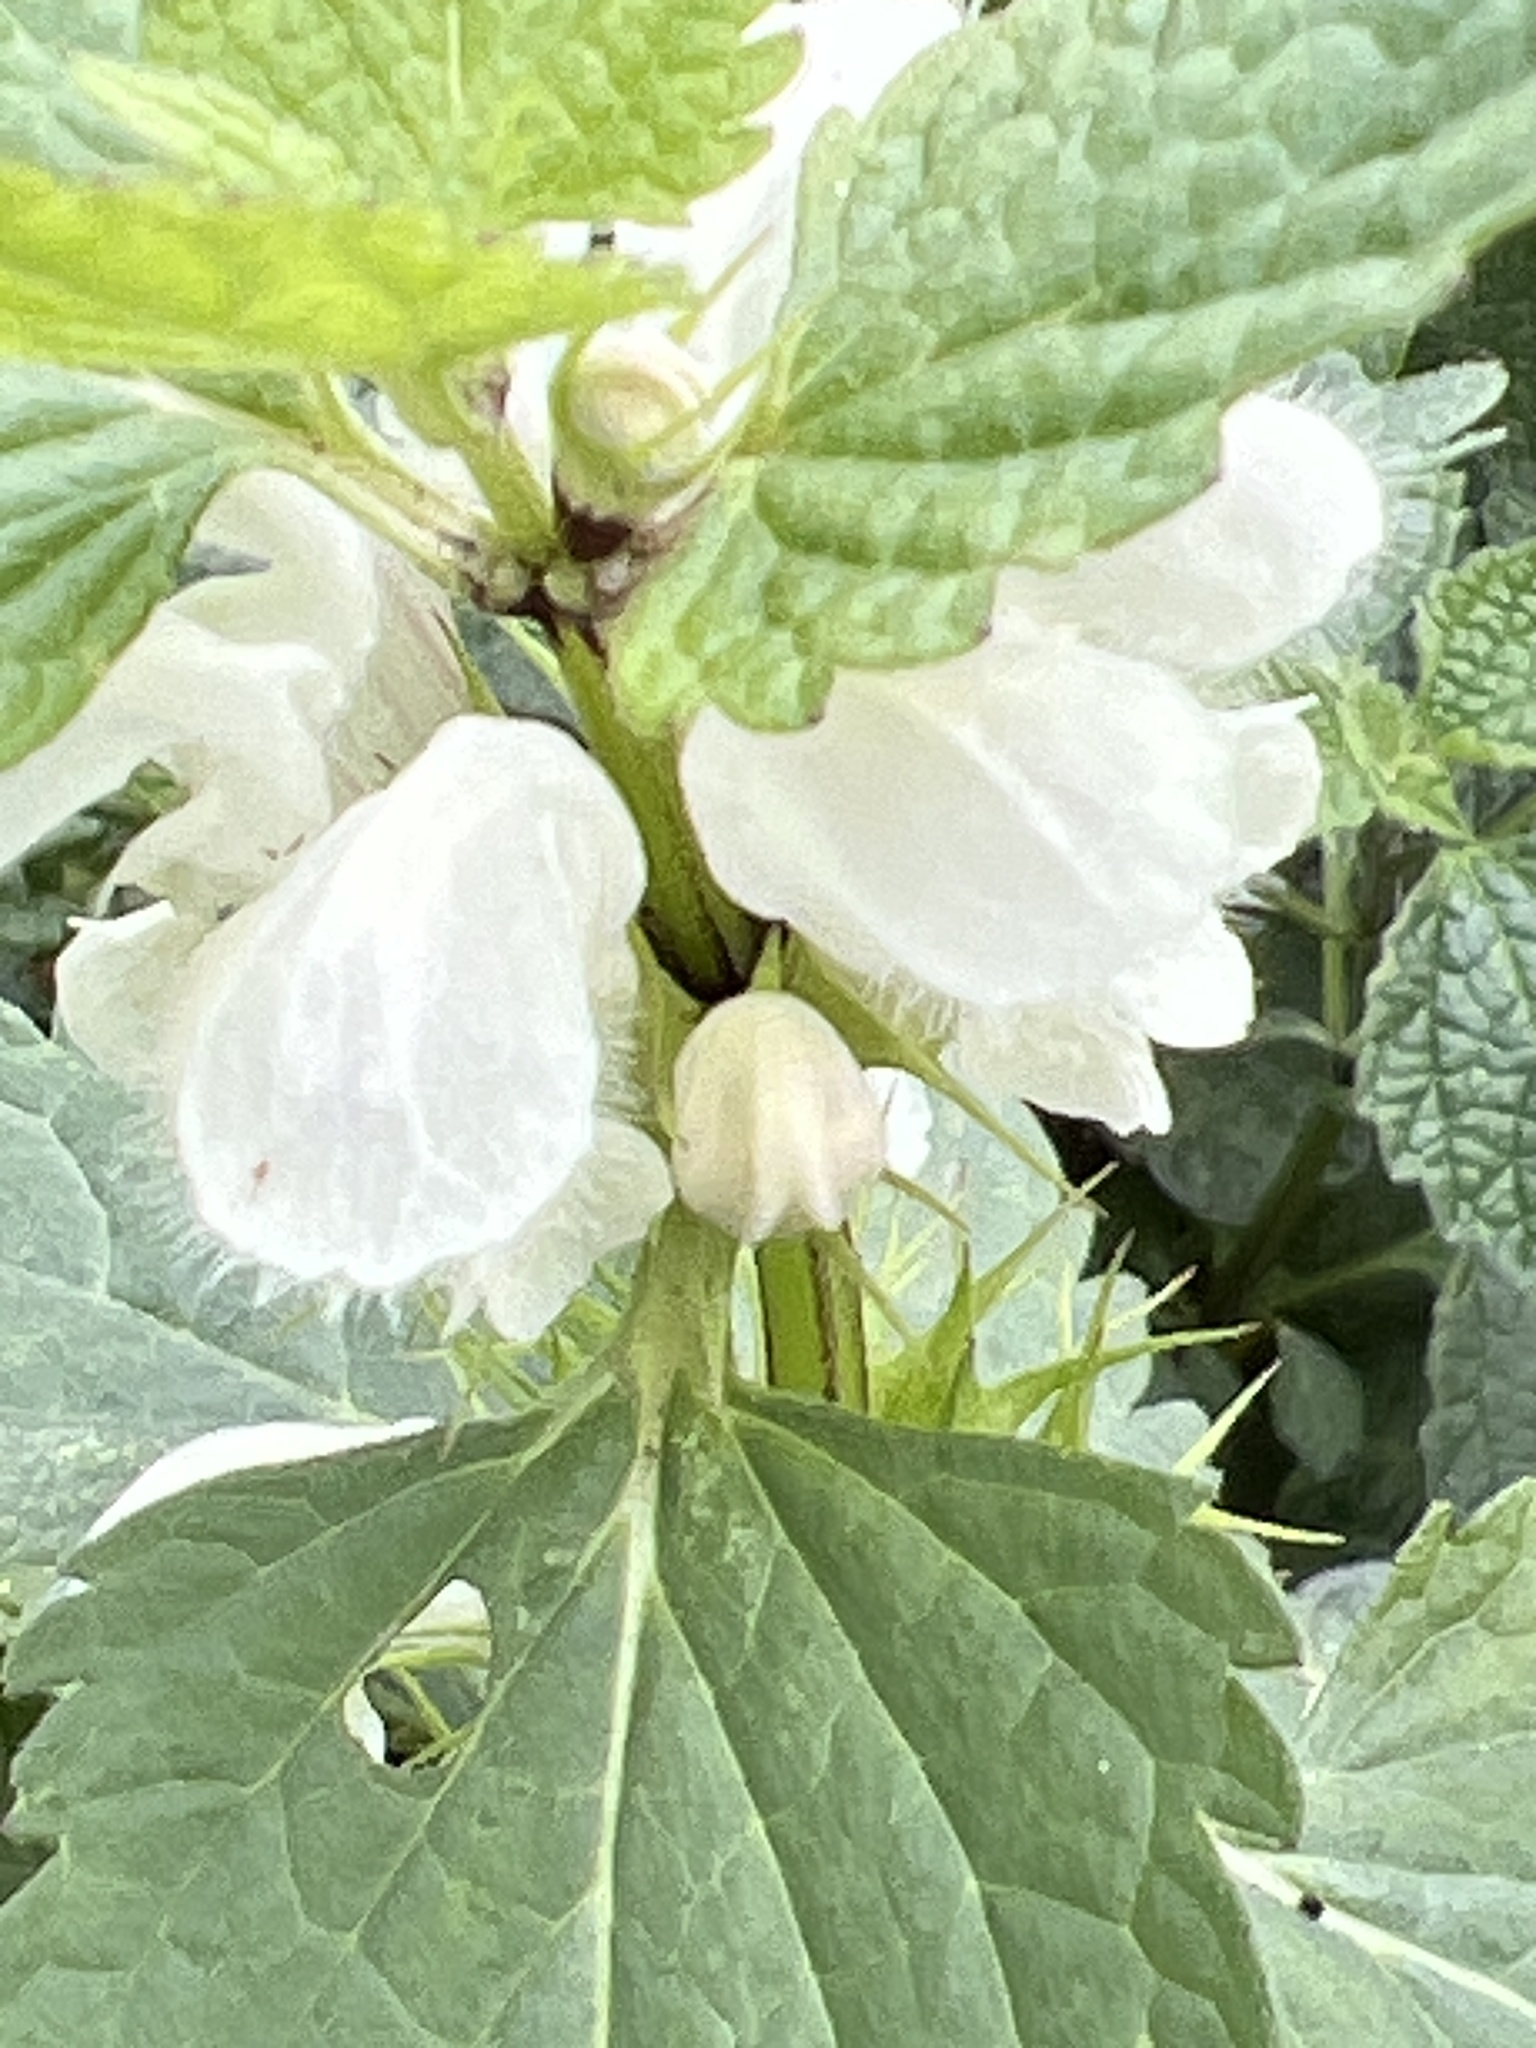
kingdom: Plantae
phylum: Tracheophyta
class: Magnoliopsida
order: Lamiales
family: Lamiaceae
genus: Lamium
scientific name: Lamium album
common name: White dead-nettle
